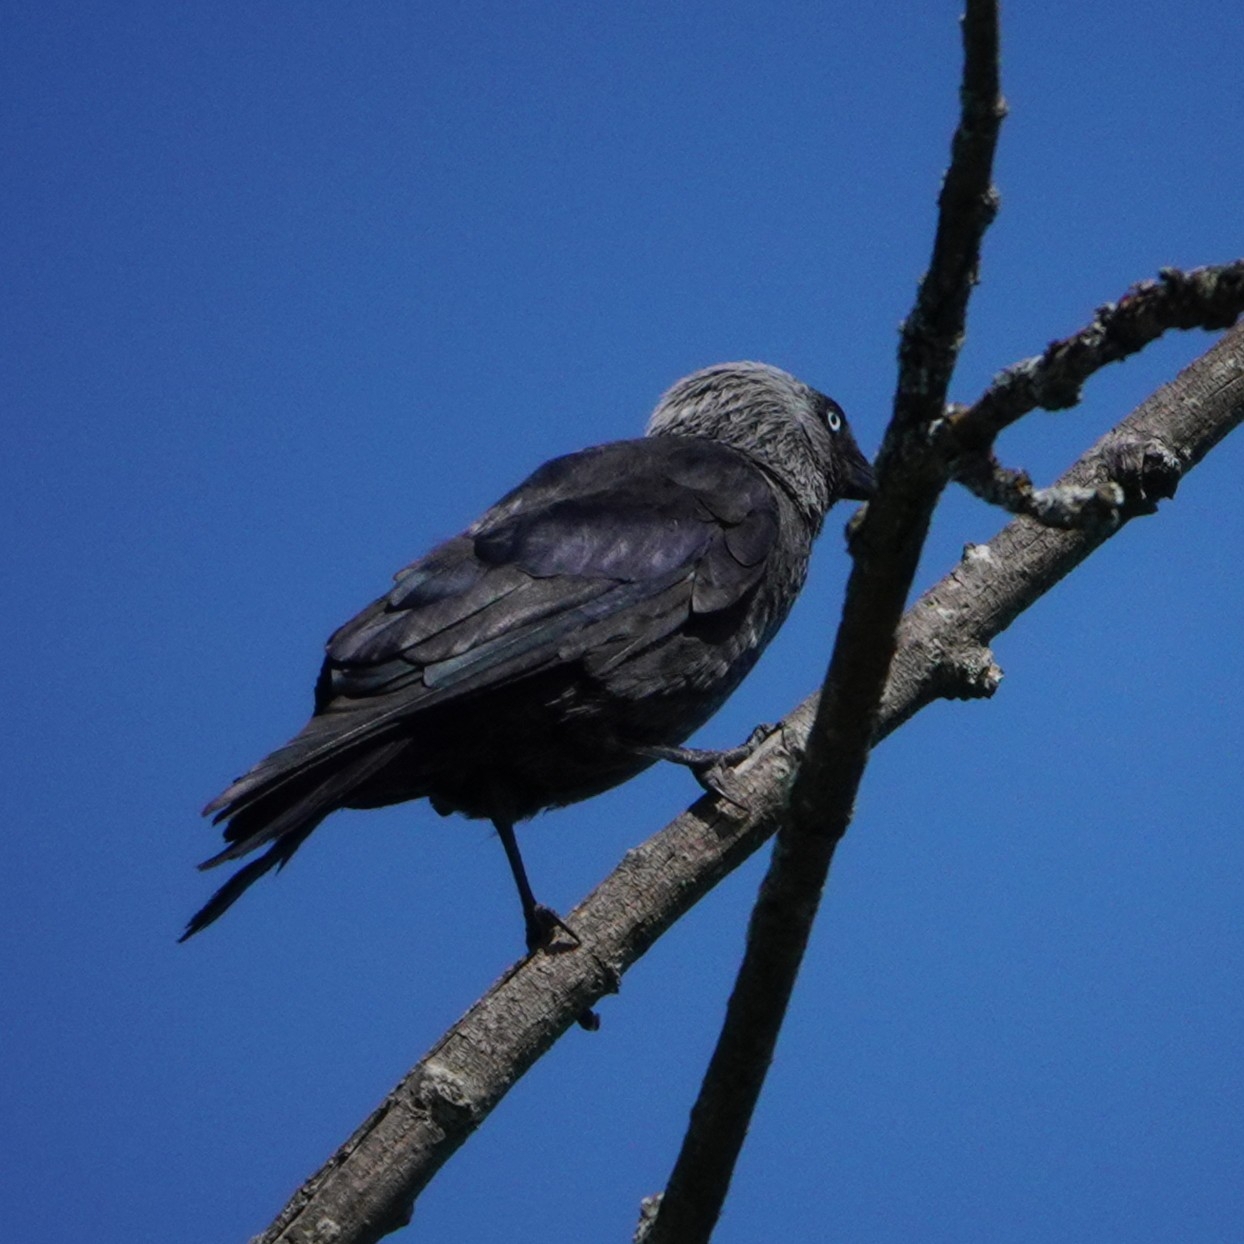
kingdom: Animalia
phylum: Chordata
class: Aves
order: Passeriformes
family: Corvidae
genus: Coloeus
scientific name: Coloeus monedula
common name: Western jackdaw
